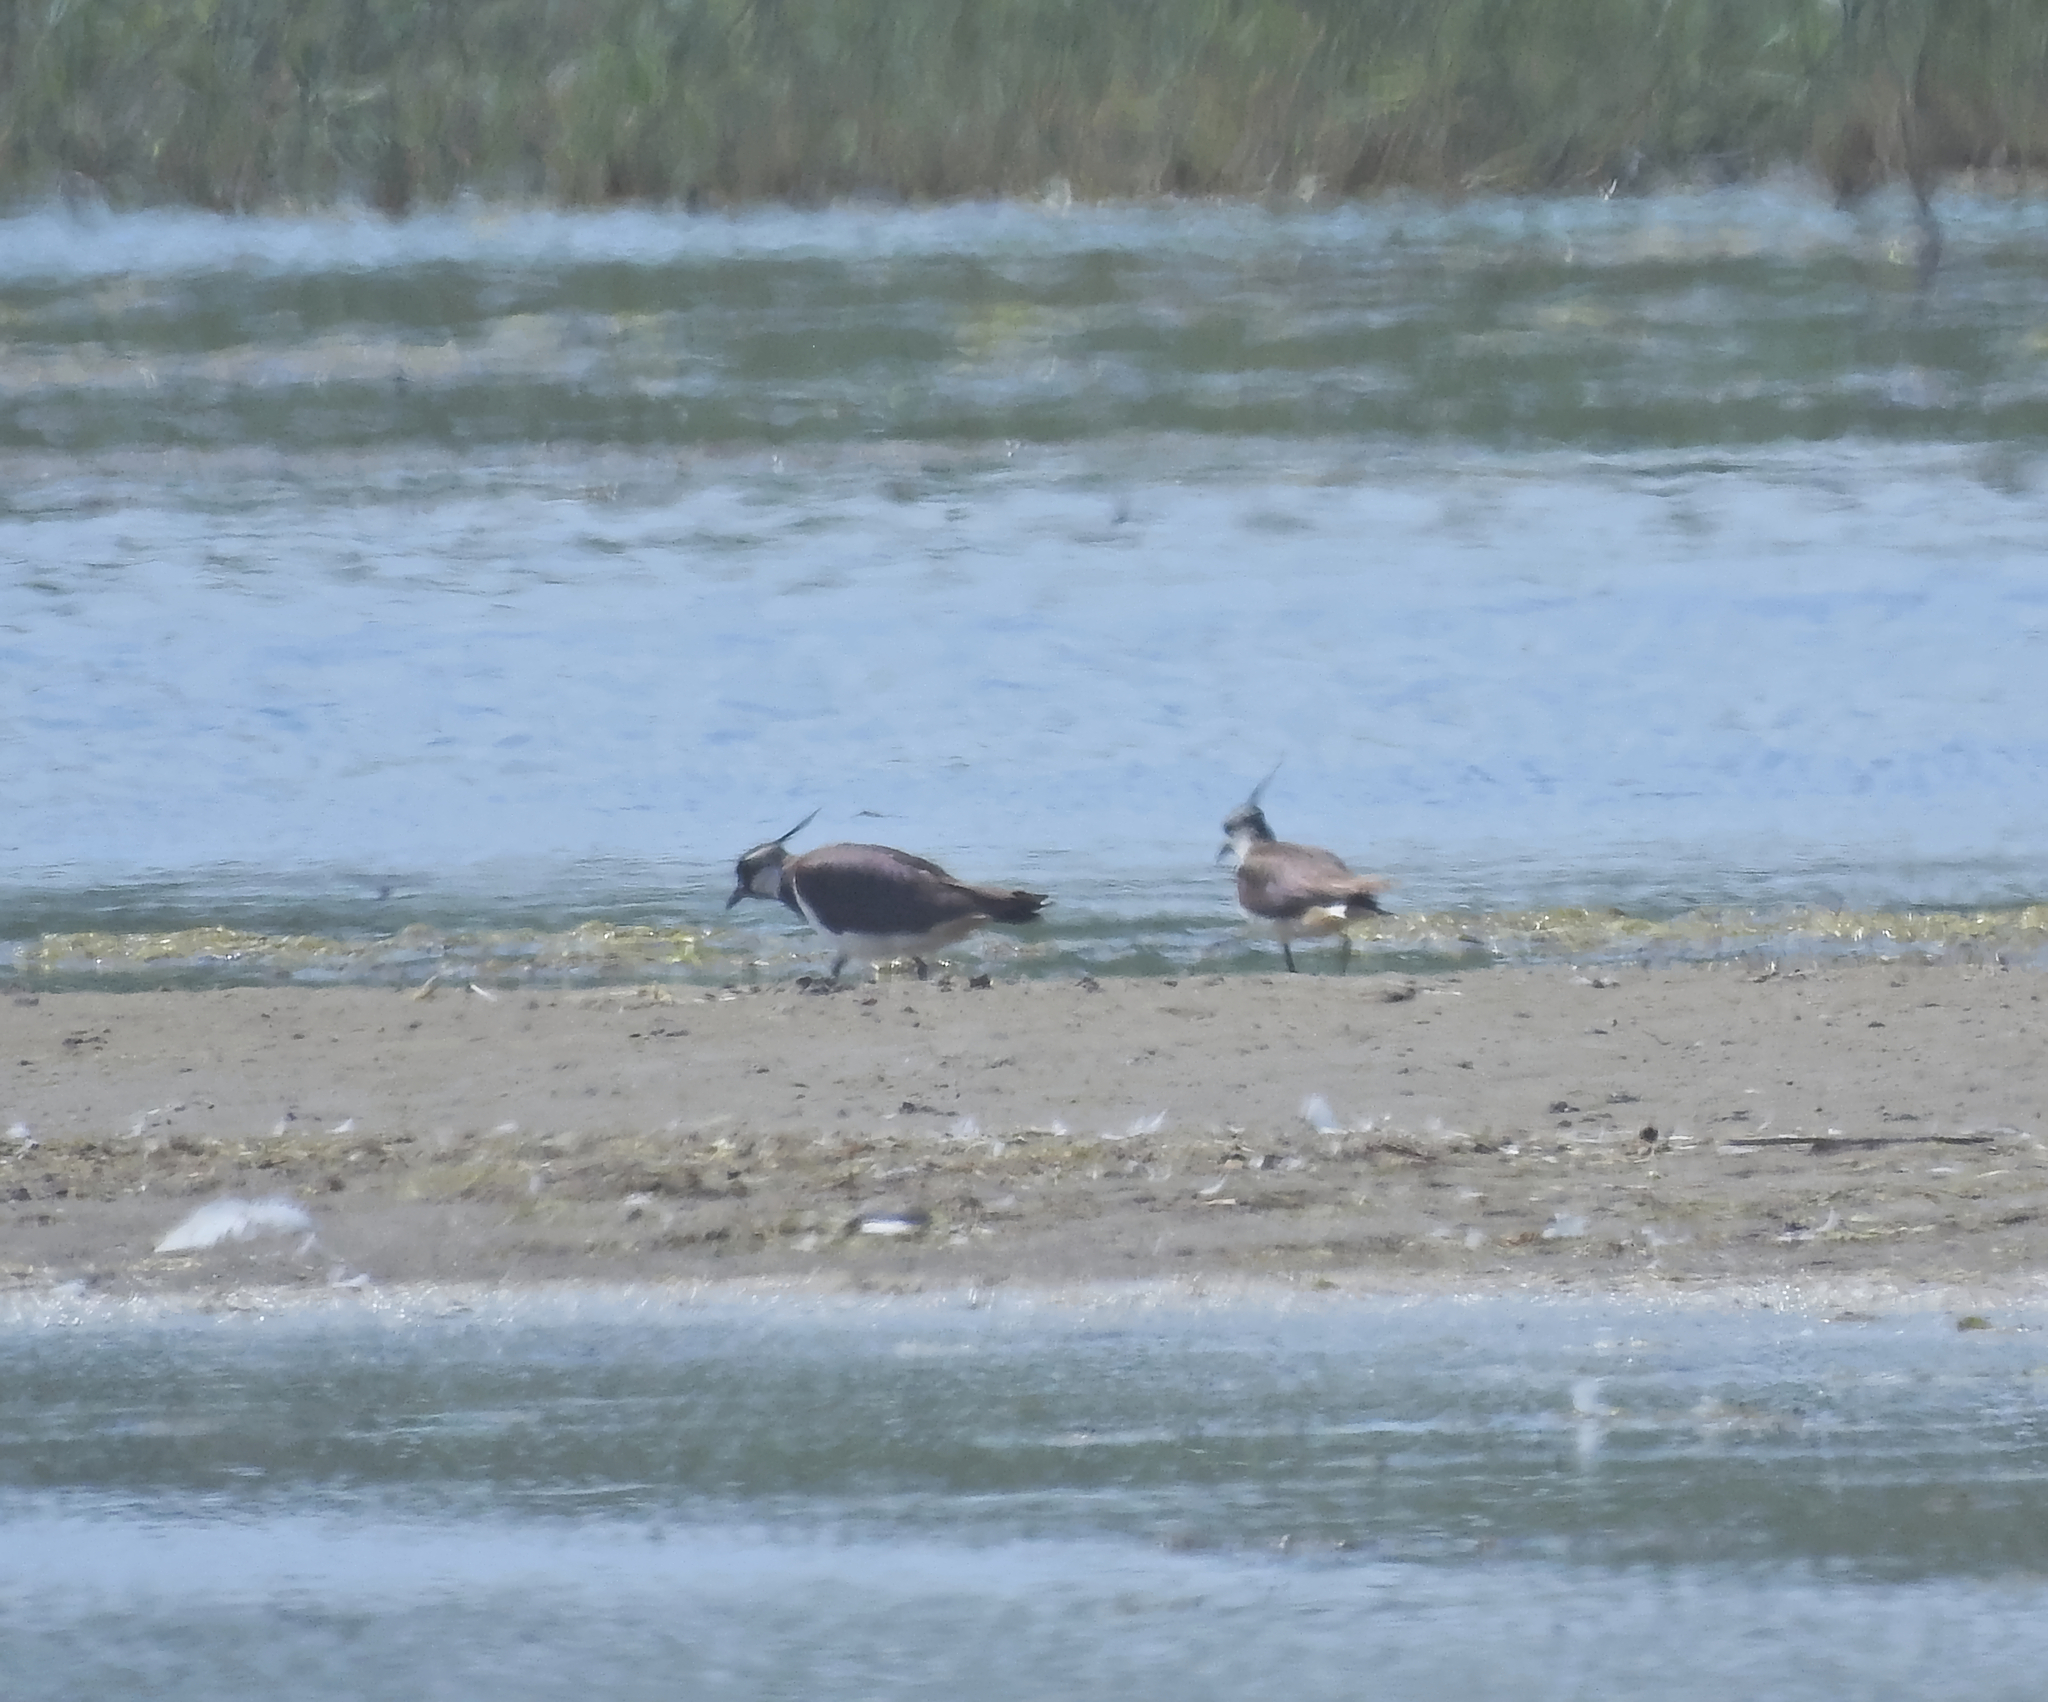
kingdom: Animalia
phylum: Chordata
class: Aves
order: Charadriiformes
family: Charadriidae
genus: Vanellus
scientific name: Vanellus vanellus
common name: Northern lapwing
